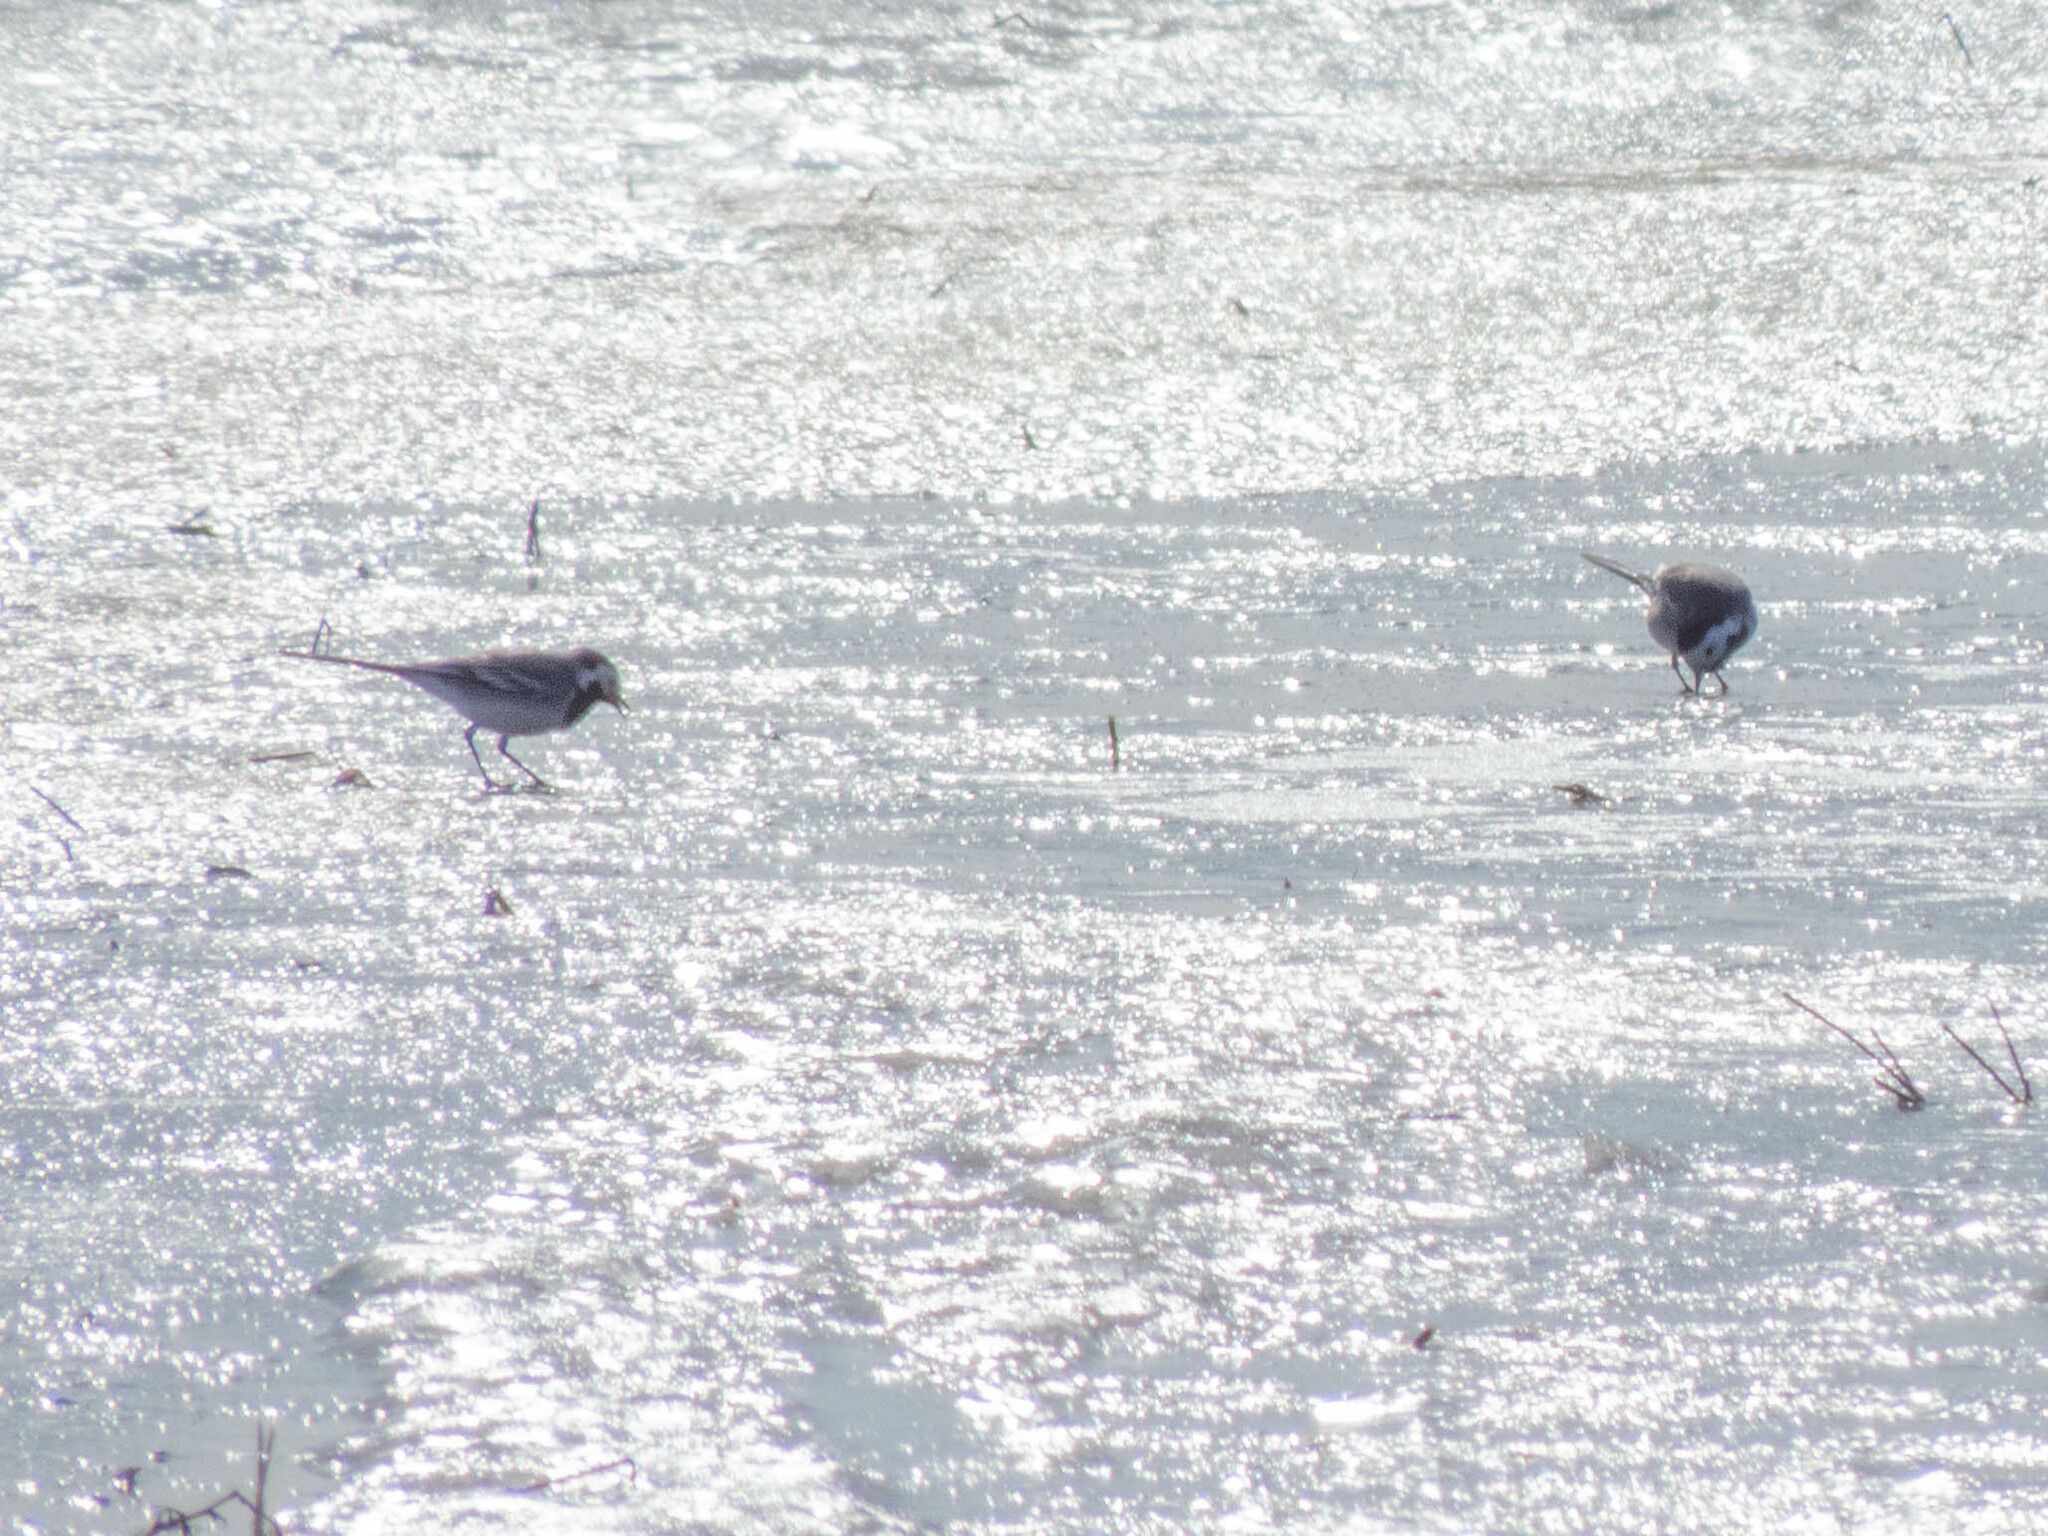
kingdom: Animalia
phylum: Chordata
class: Aves
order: Passeriformes
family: Motacillidae
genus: Motacilla
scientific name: Motacilla alba
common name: White wagtail
